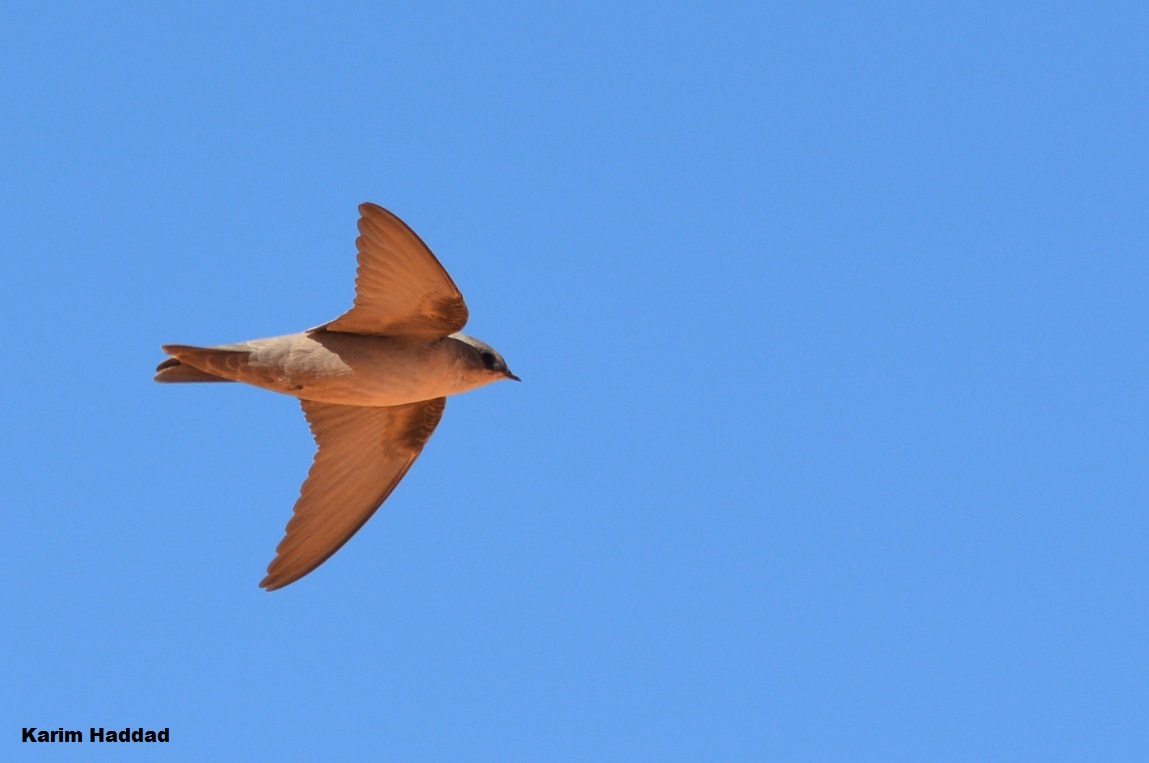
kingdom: Animalia
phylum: Chordata
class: Aves
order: Passeriformes
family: Hirundinidae
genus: Ptyonoprogne
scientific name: Ptyonoprogne fuligula
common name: Rock martin
